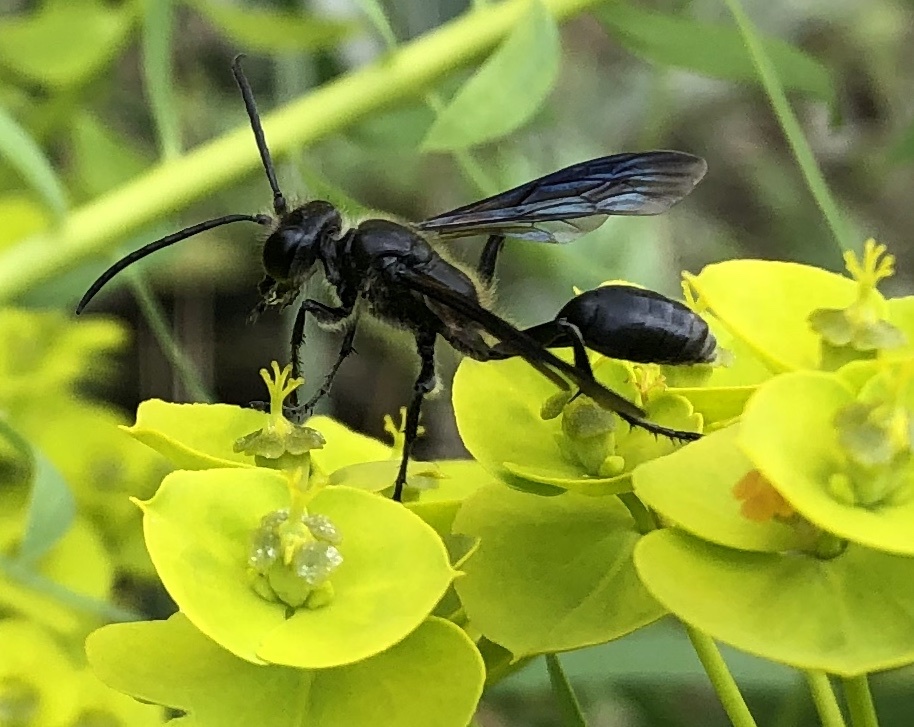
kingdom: Animalia
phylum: Arthropoda
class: Insecta
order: Hymenoptera
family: Sphecidae
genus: Isodontia
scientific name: Isodontia mexicana
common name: Mud dauber
